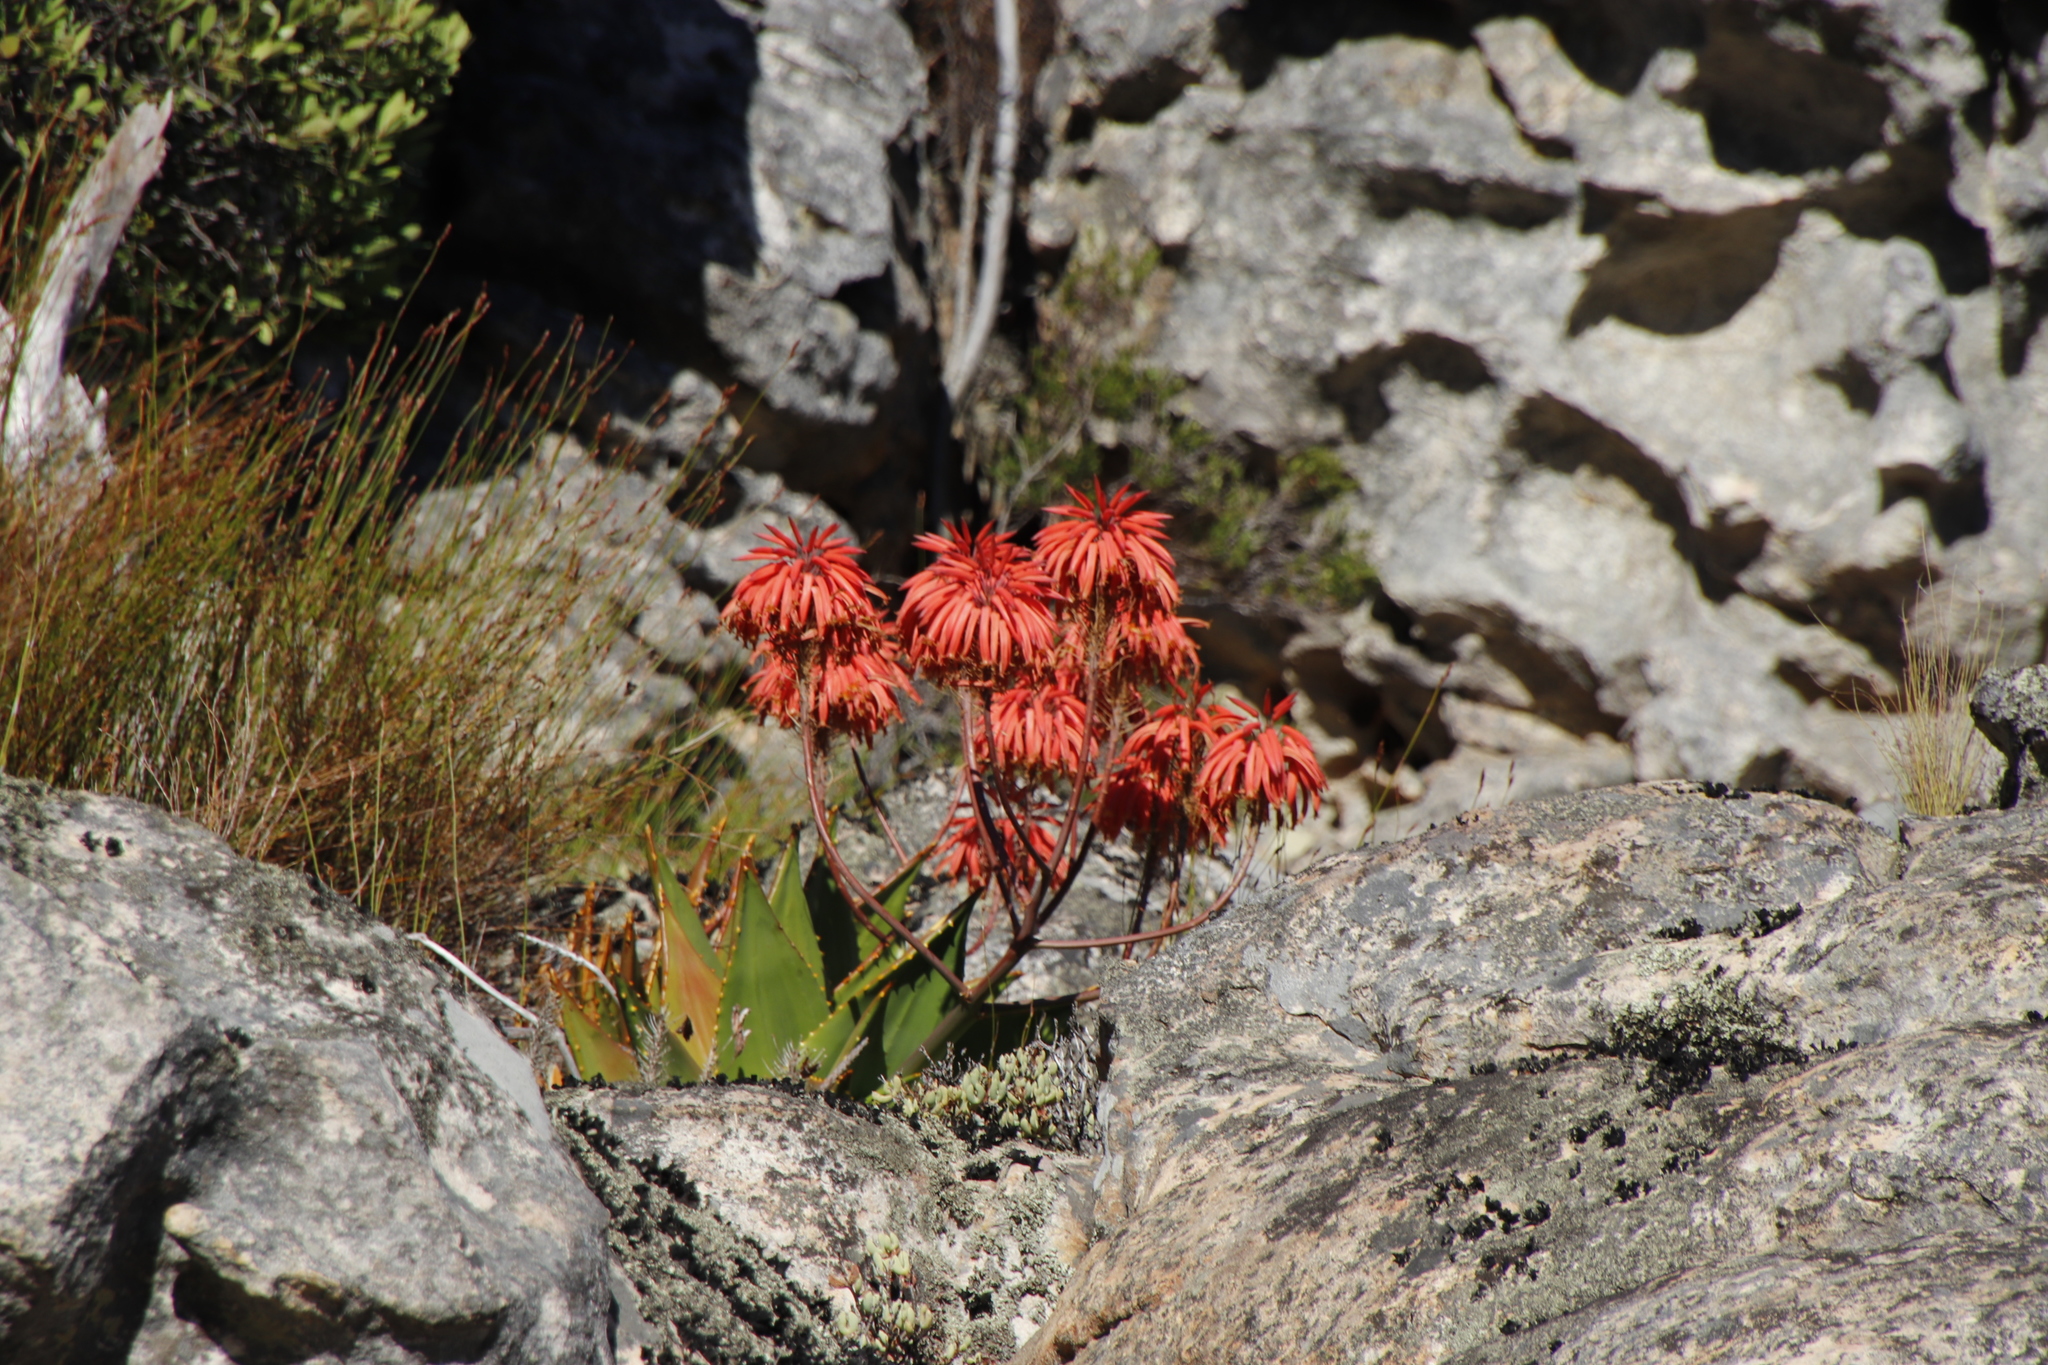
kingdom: Plantae
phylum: Tracheophyta
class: Liliopsida
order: Asparagales
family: Asphodelaceae
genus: Aloe
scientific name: Aloe perfoliata
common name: Mitra aloe
